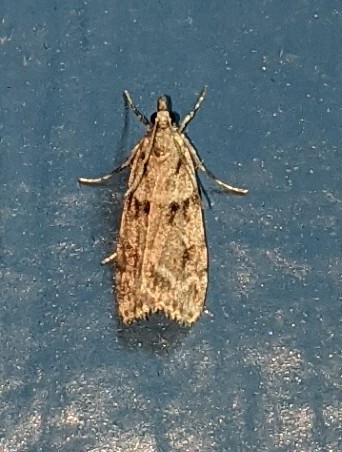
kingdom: Animalia
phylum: Arthropoda
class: Insecta
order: Lepidoptera
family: Crambidae
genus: Scoparia
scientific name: Scoparia biplagialis
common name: Double-striped scoparia moth
